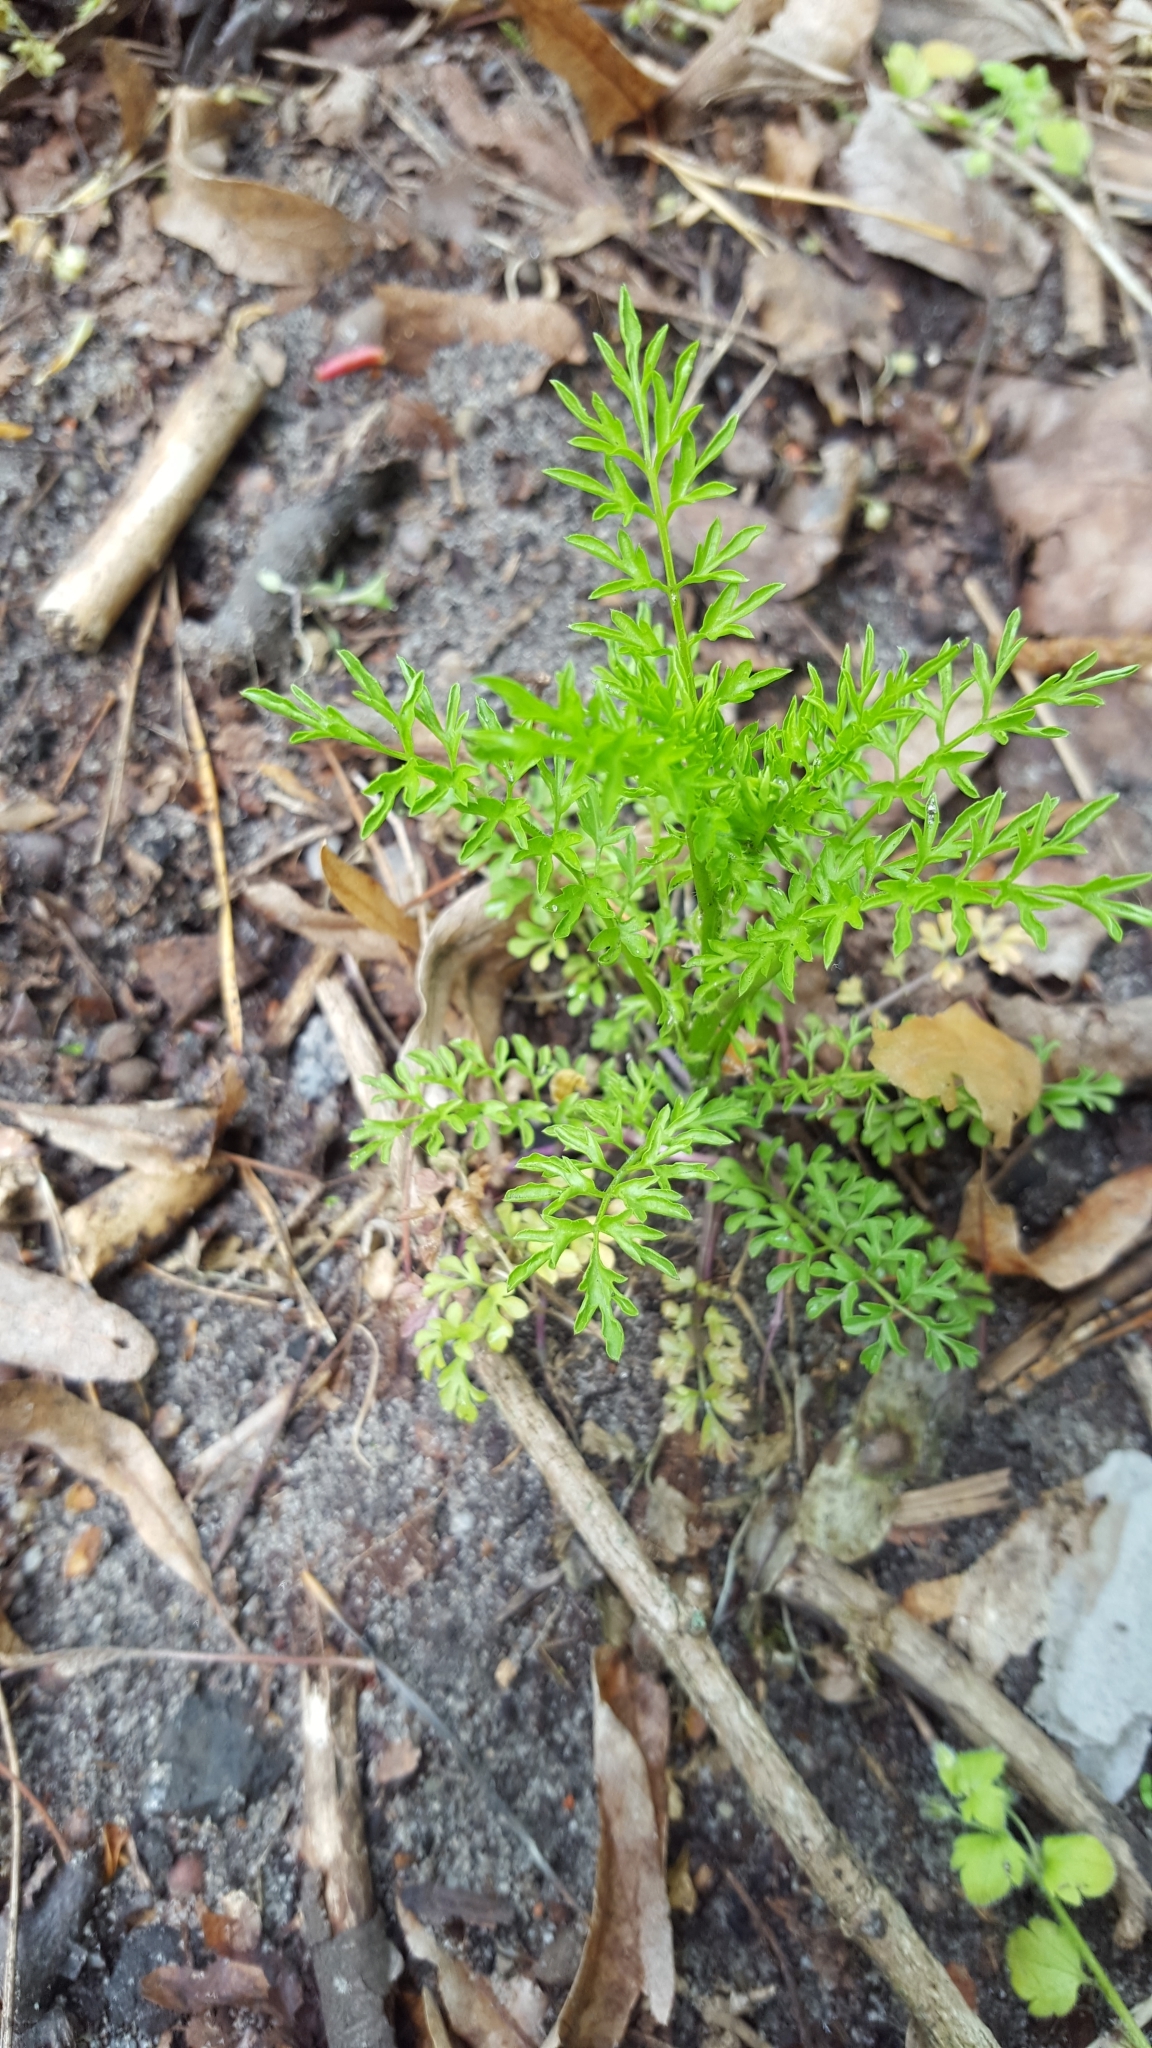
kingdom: Plantae
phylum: Tracheophyta
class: Magnoliopsida
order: Brassicales
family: Brassicaceae
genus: Cardamine
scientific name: Cardamine impatiens
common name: Narrow-leaved bitter-cress
